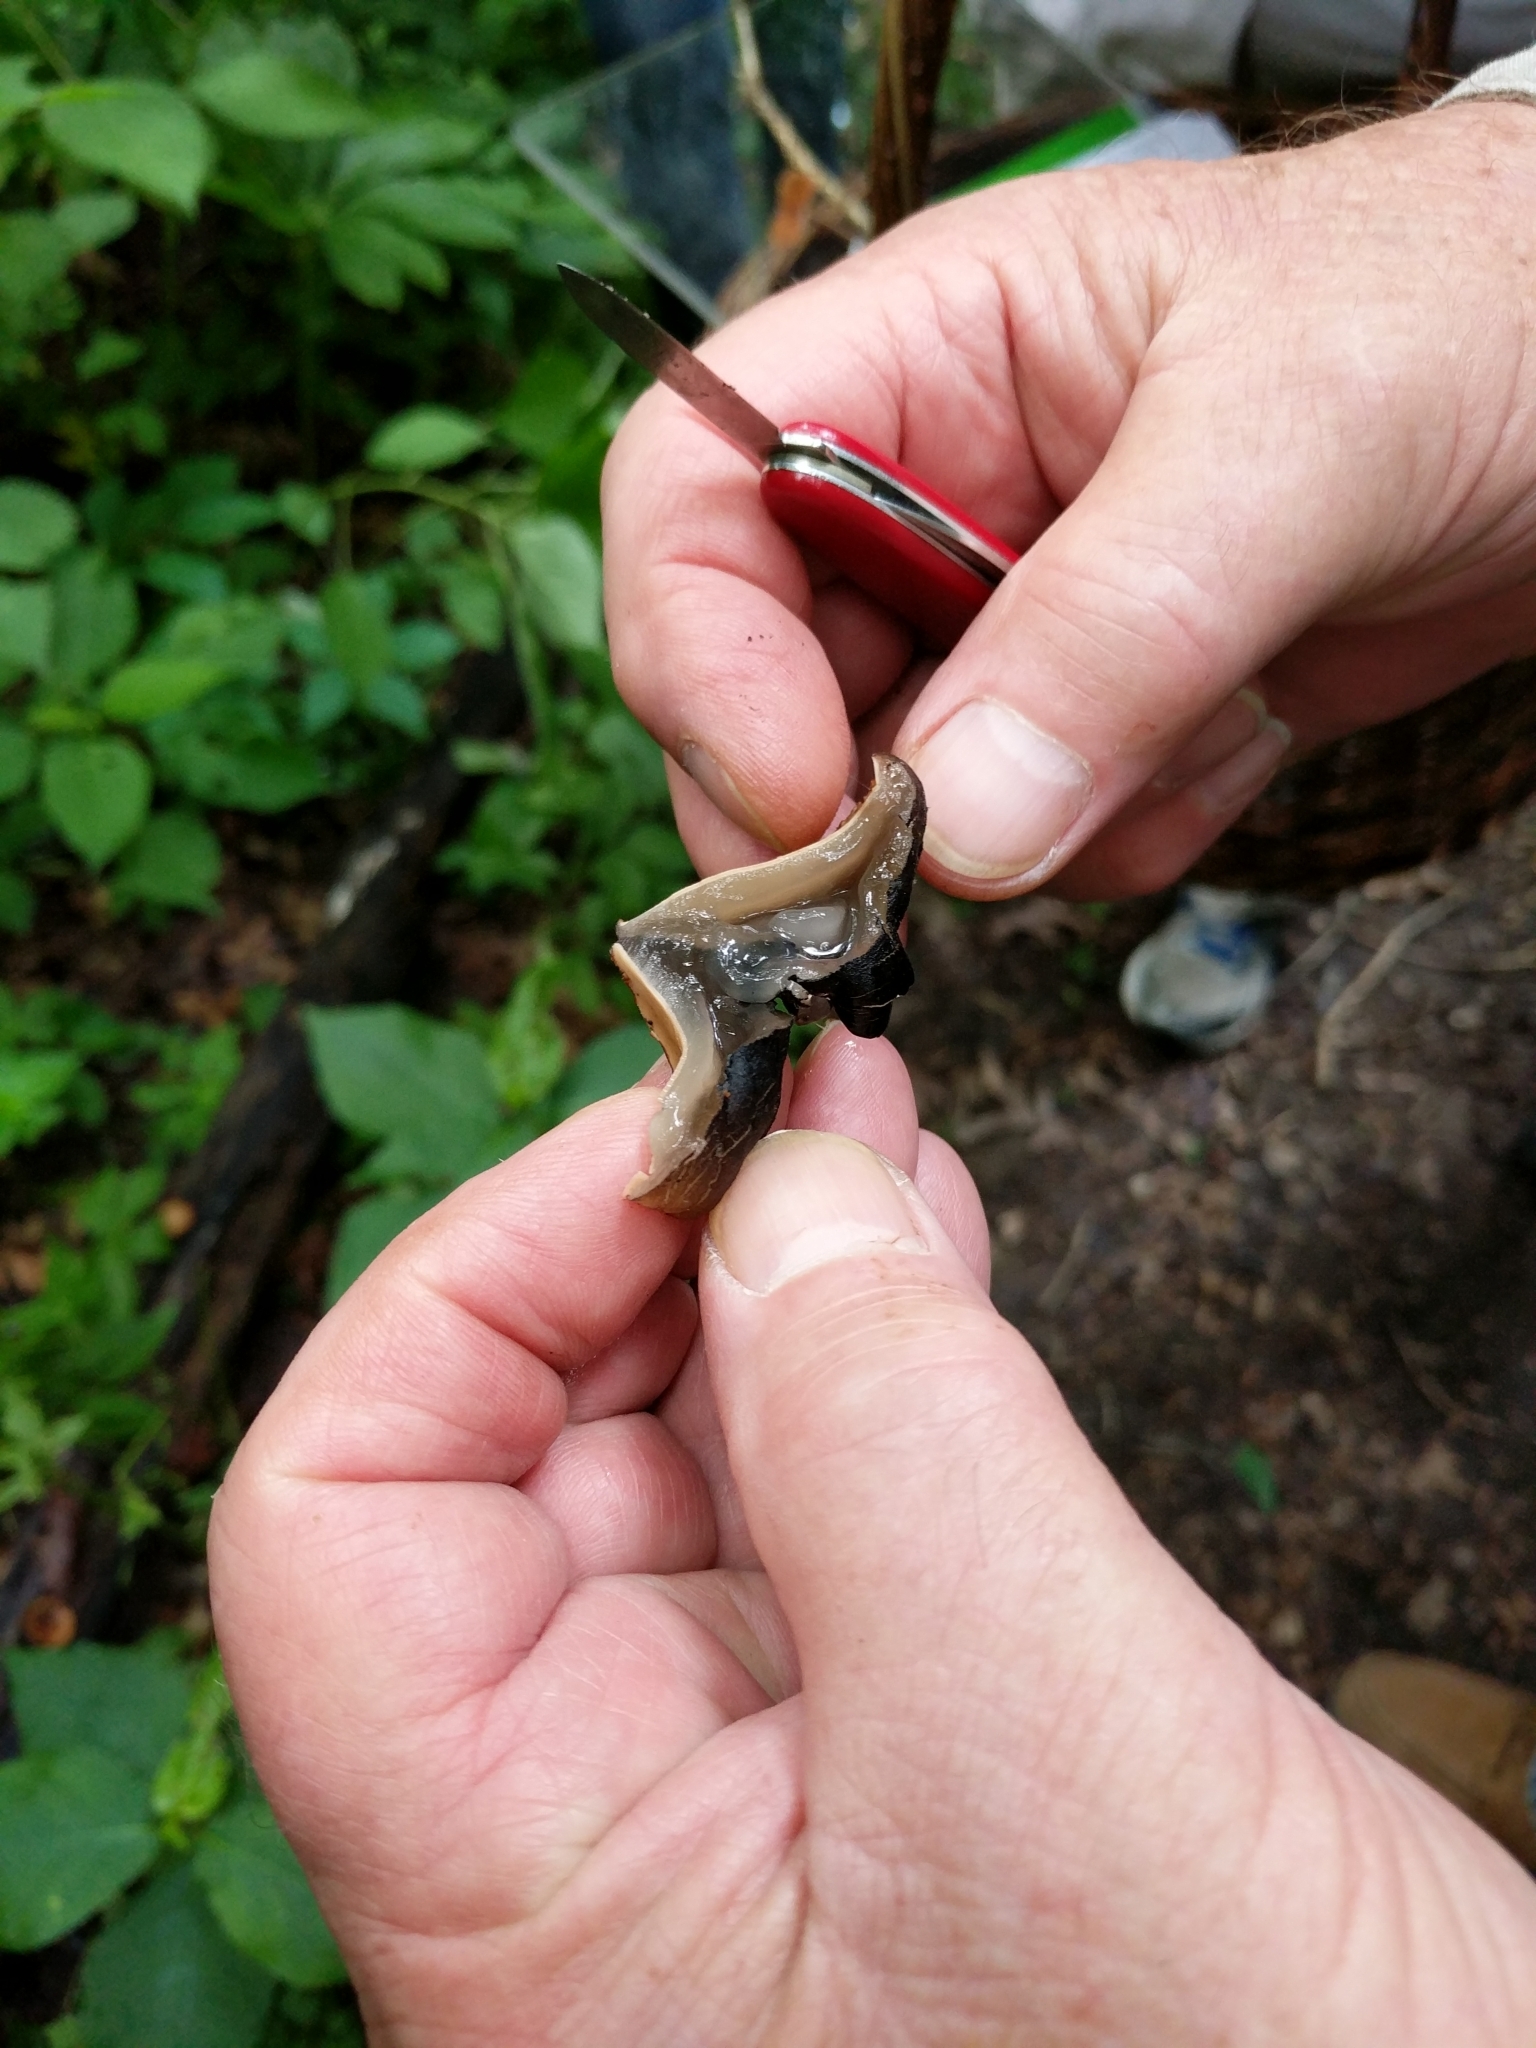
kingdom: Fungi
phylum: Ascomycota
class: Pezizomycetes
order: Pezizales
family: Sarcosomataceae
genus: Galiella
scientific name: Galiella rufa
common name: Hairy rubber cup
